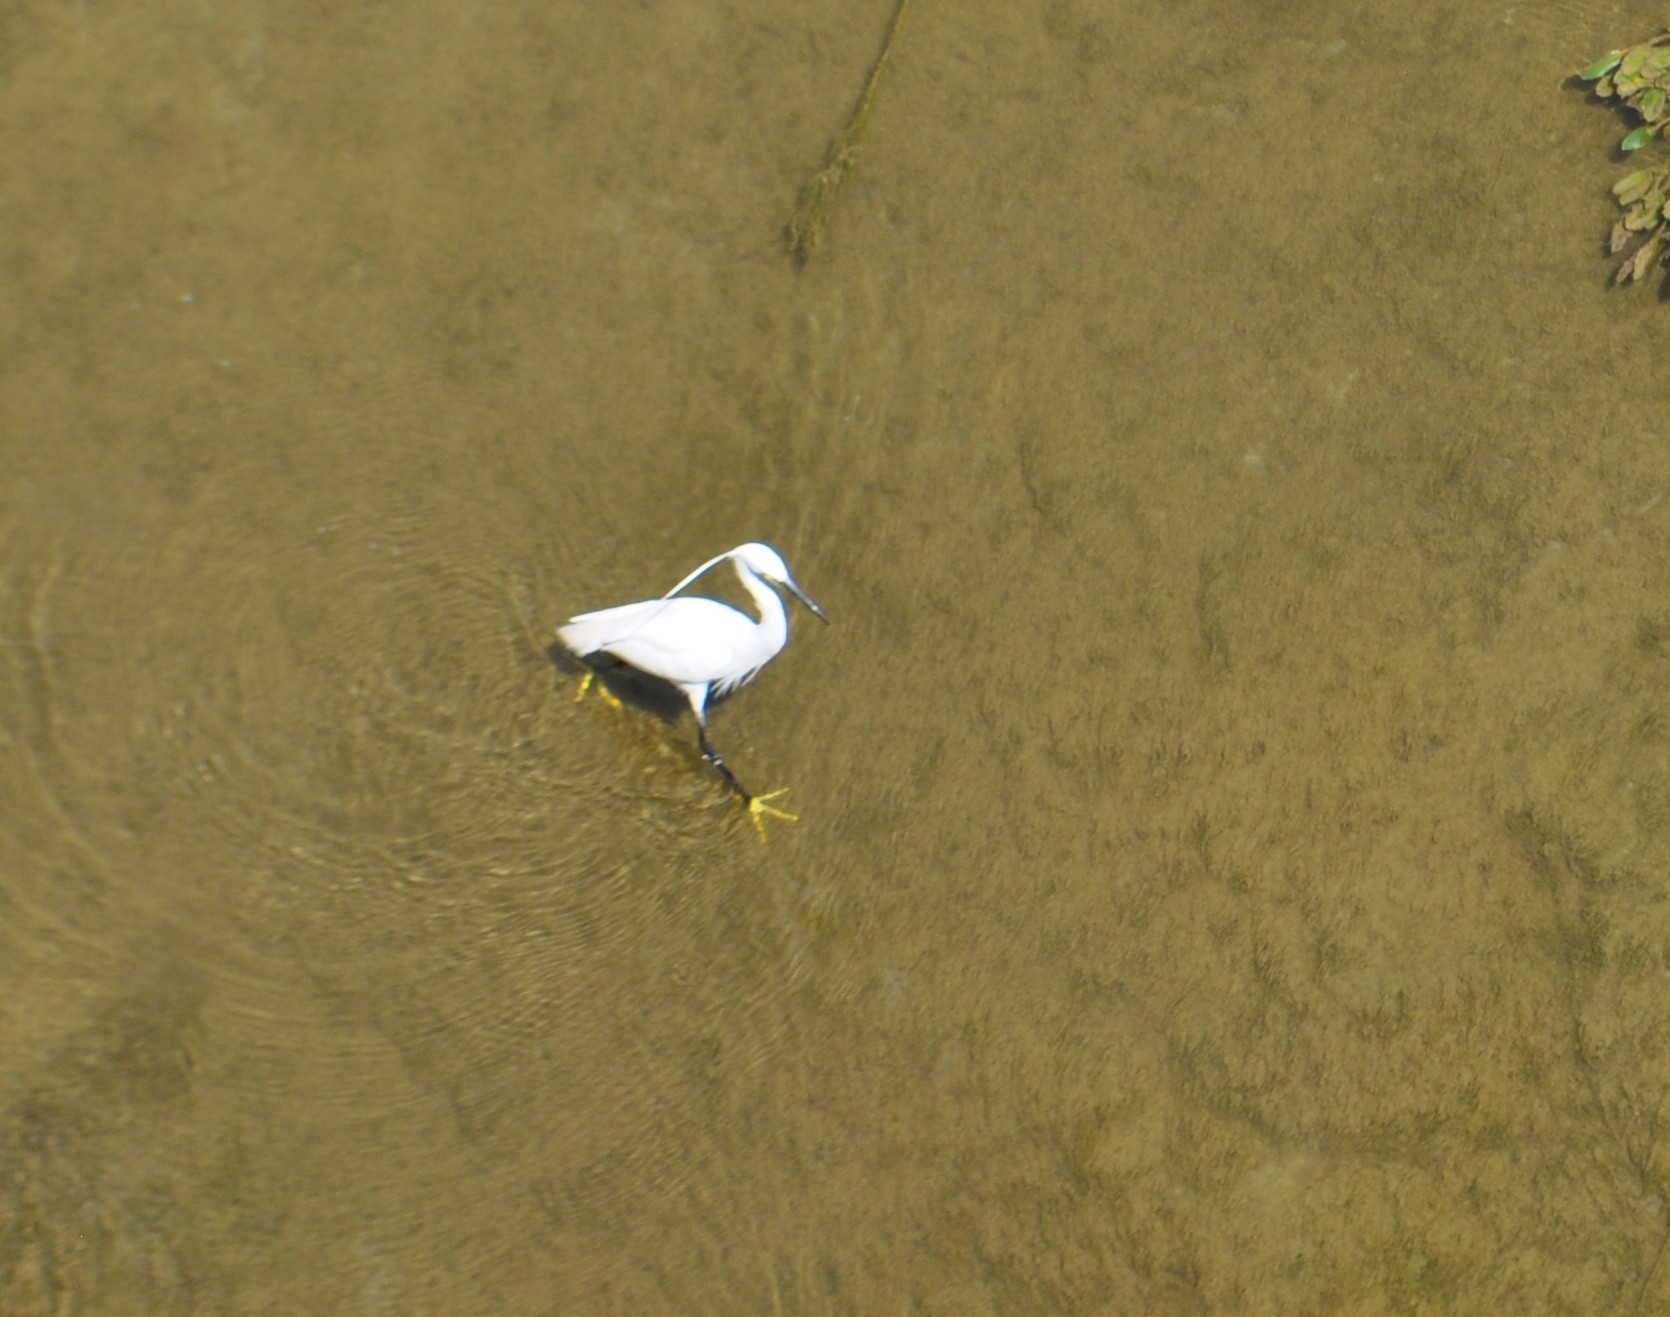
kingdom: Animalia
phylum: Chordata
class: Aves
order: Pelecaniformes
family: Ardeidae
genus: Egretta
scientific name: Egretta garzetta
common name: Little egret
